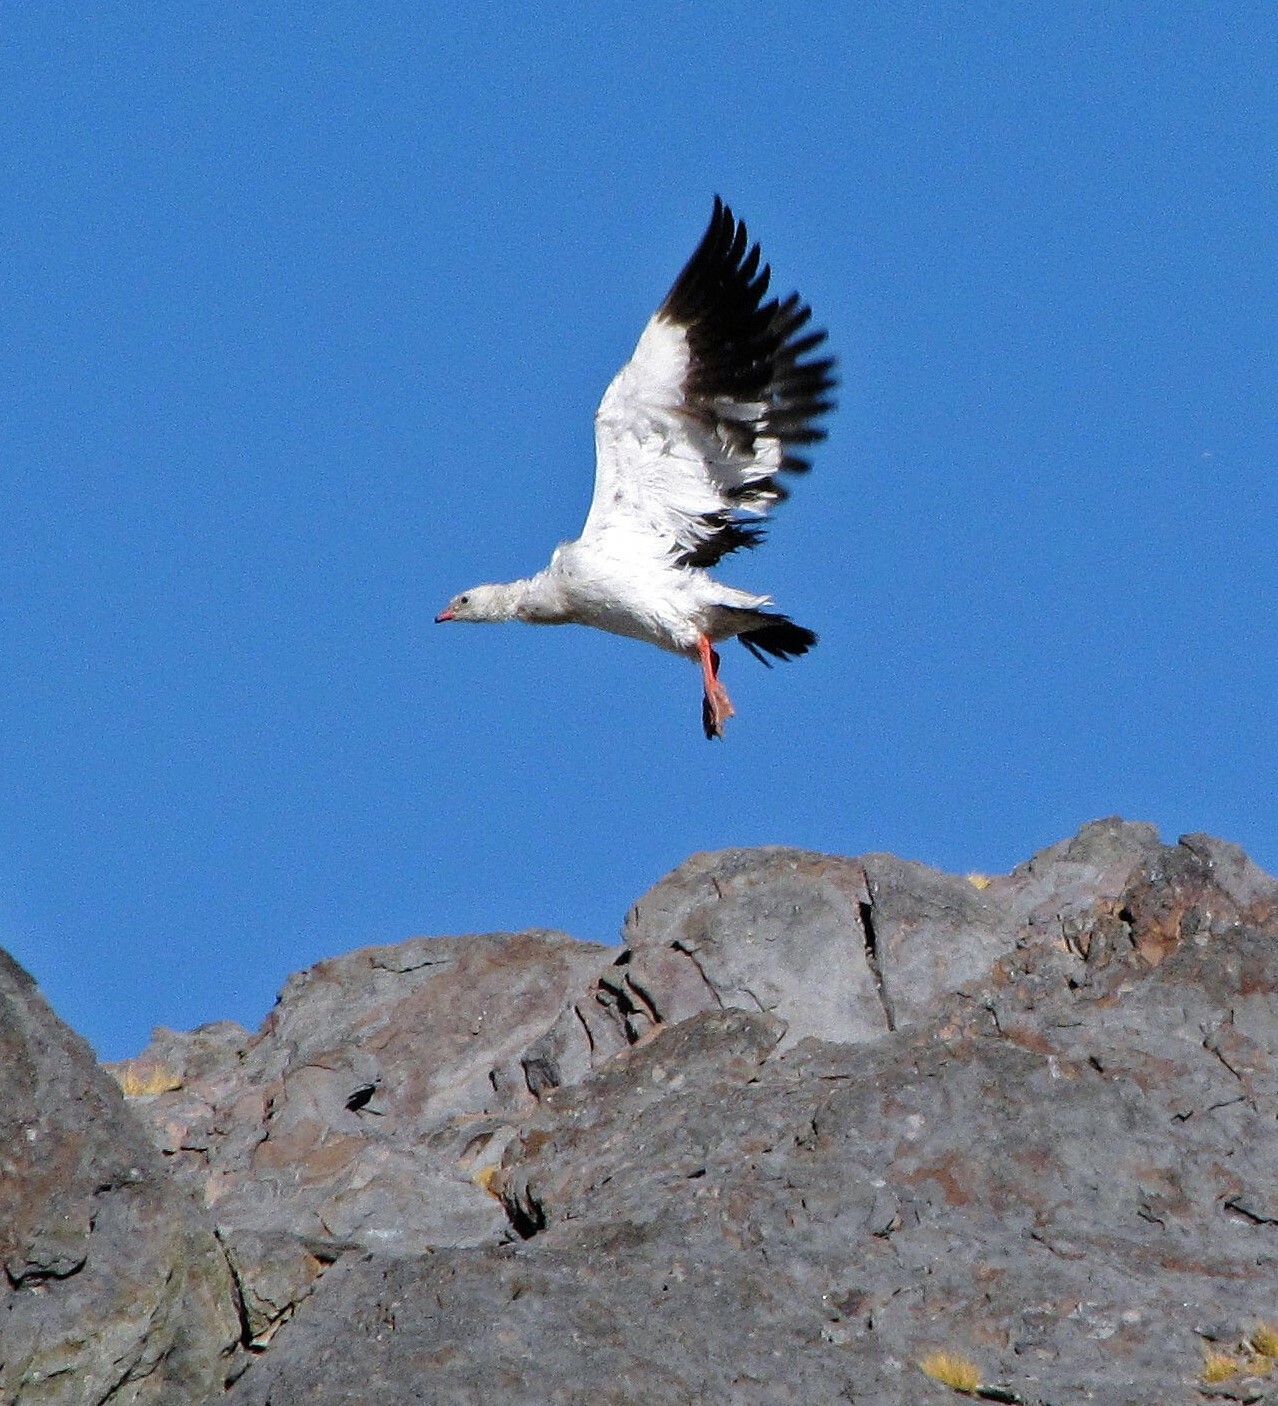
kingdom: Animalia
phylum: Chordata
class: Aves
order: Anseriformes
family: Anatidae
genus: Chloephaga
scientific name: Chloephaga melanoptera
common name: Andean goose
